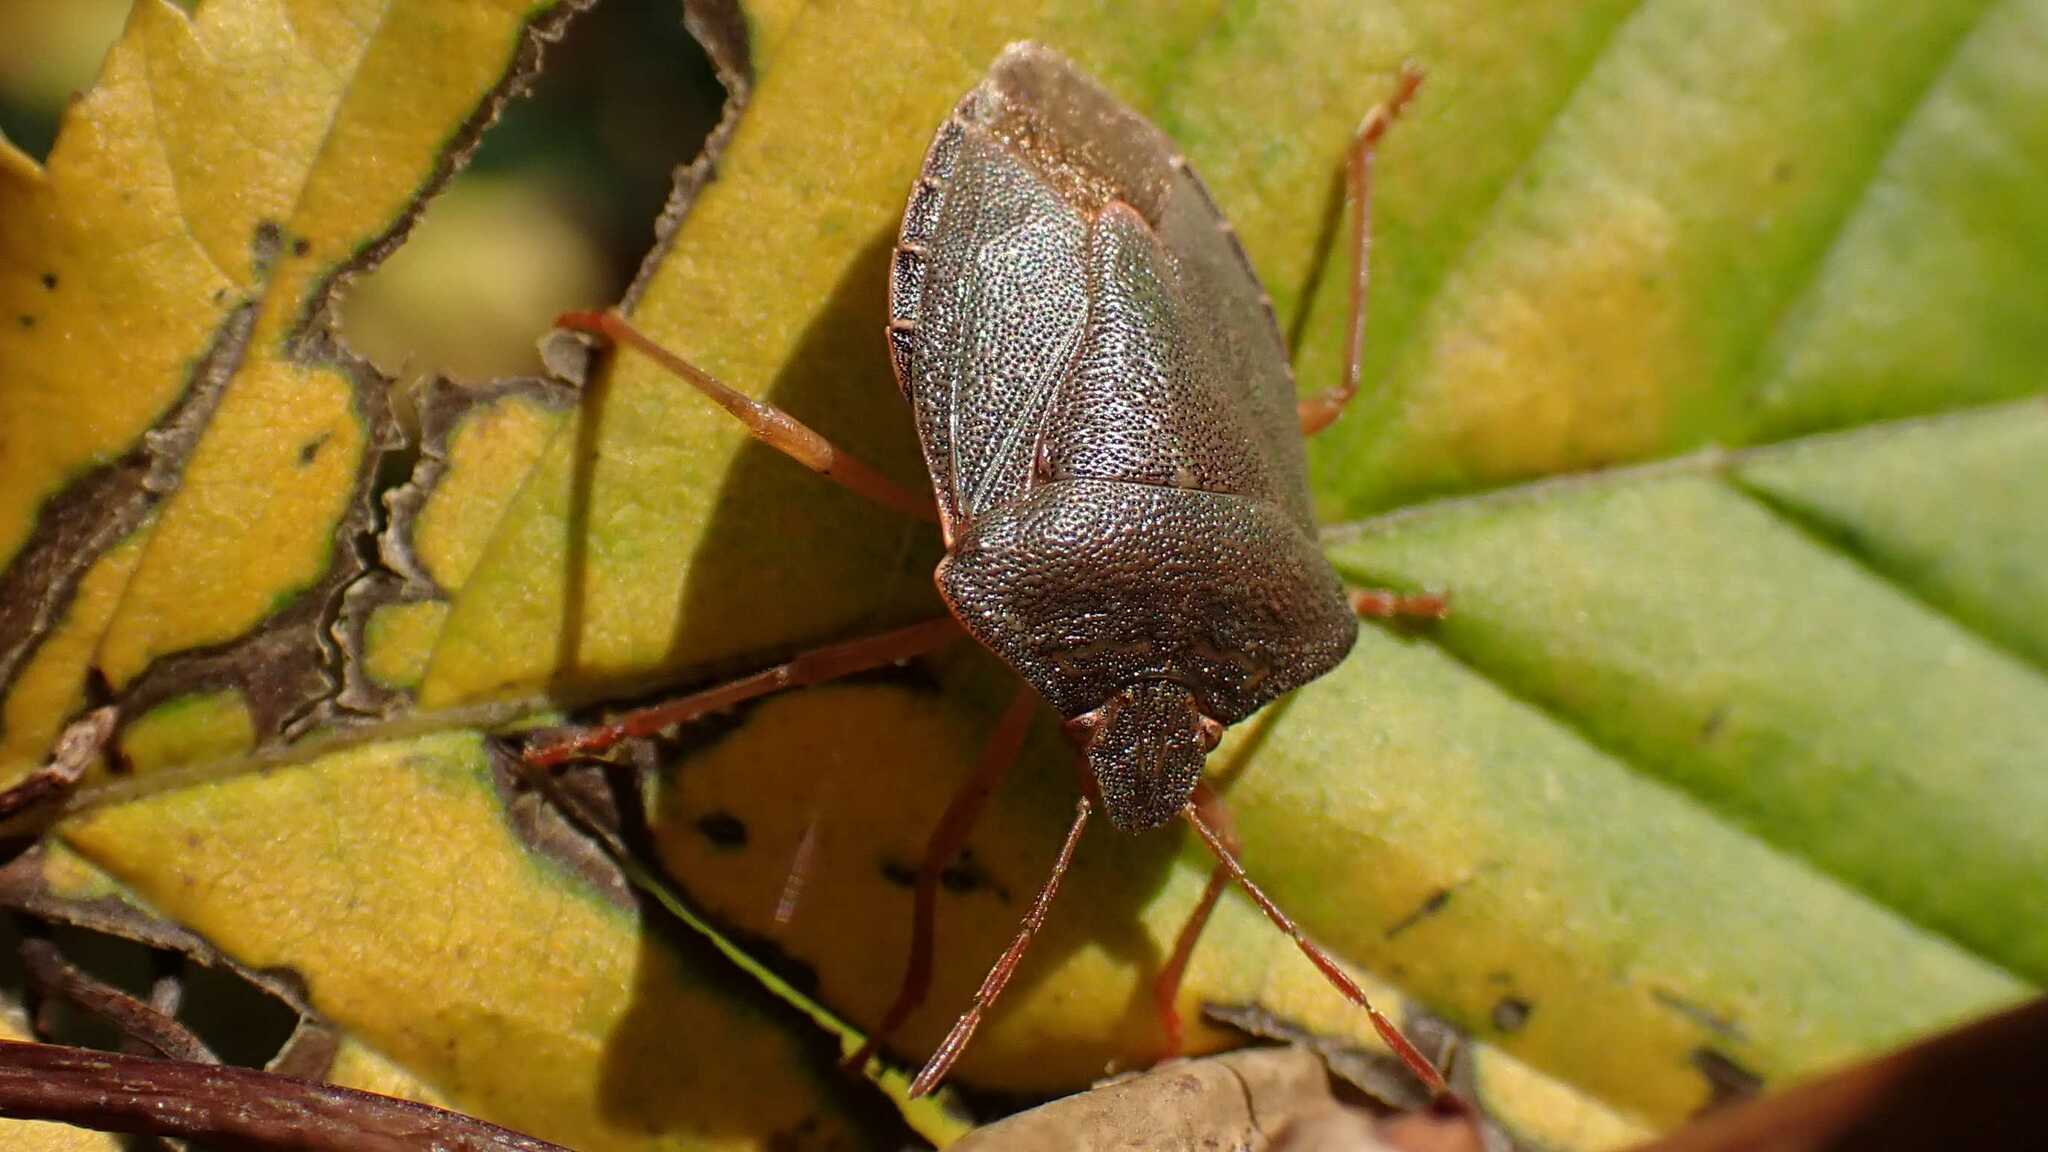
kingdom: Animalia
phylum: Arthropoda
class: Insecta
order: Hemiptera
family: Pentatomidae
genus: Palomena
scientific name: Palomena prasina
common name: Green shieldbug
